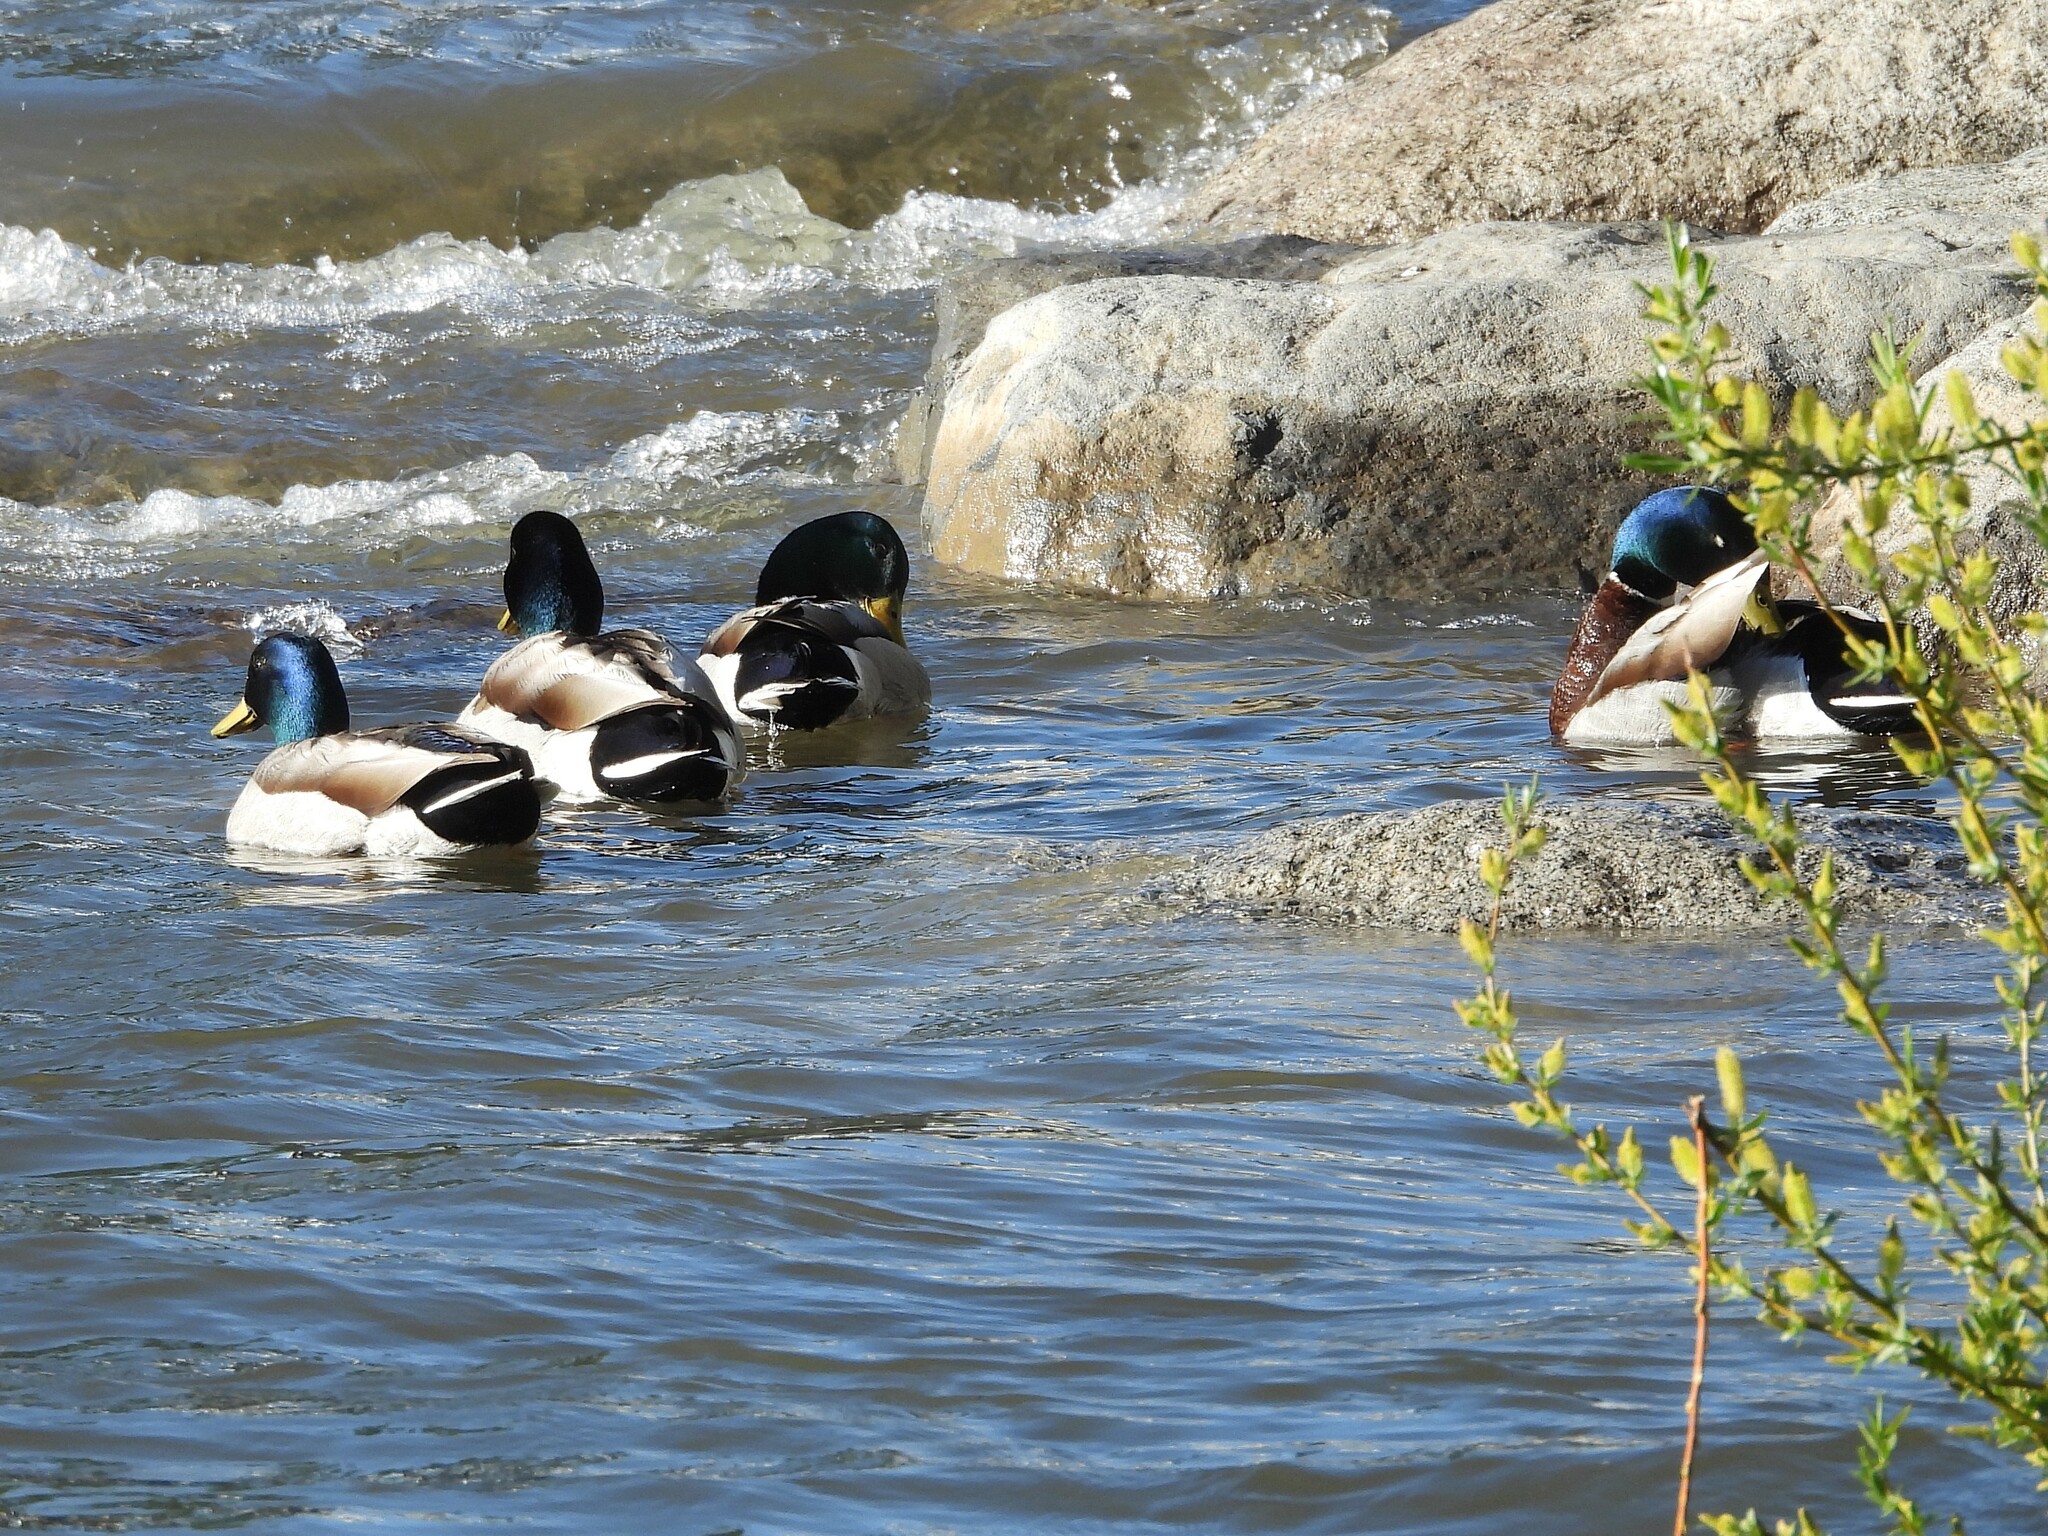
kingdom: Animalia
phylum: Chordata
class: Aves
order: Anseriformes
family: Anatidae
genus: Anas
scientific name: Anas platyrhynchos
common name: Mallard
